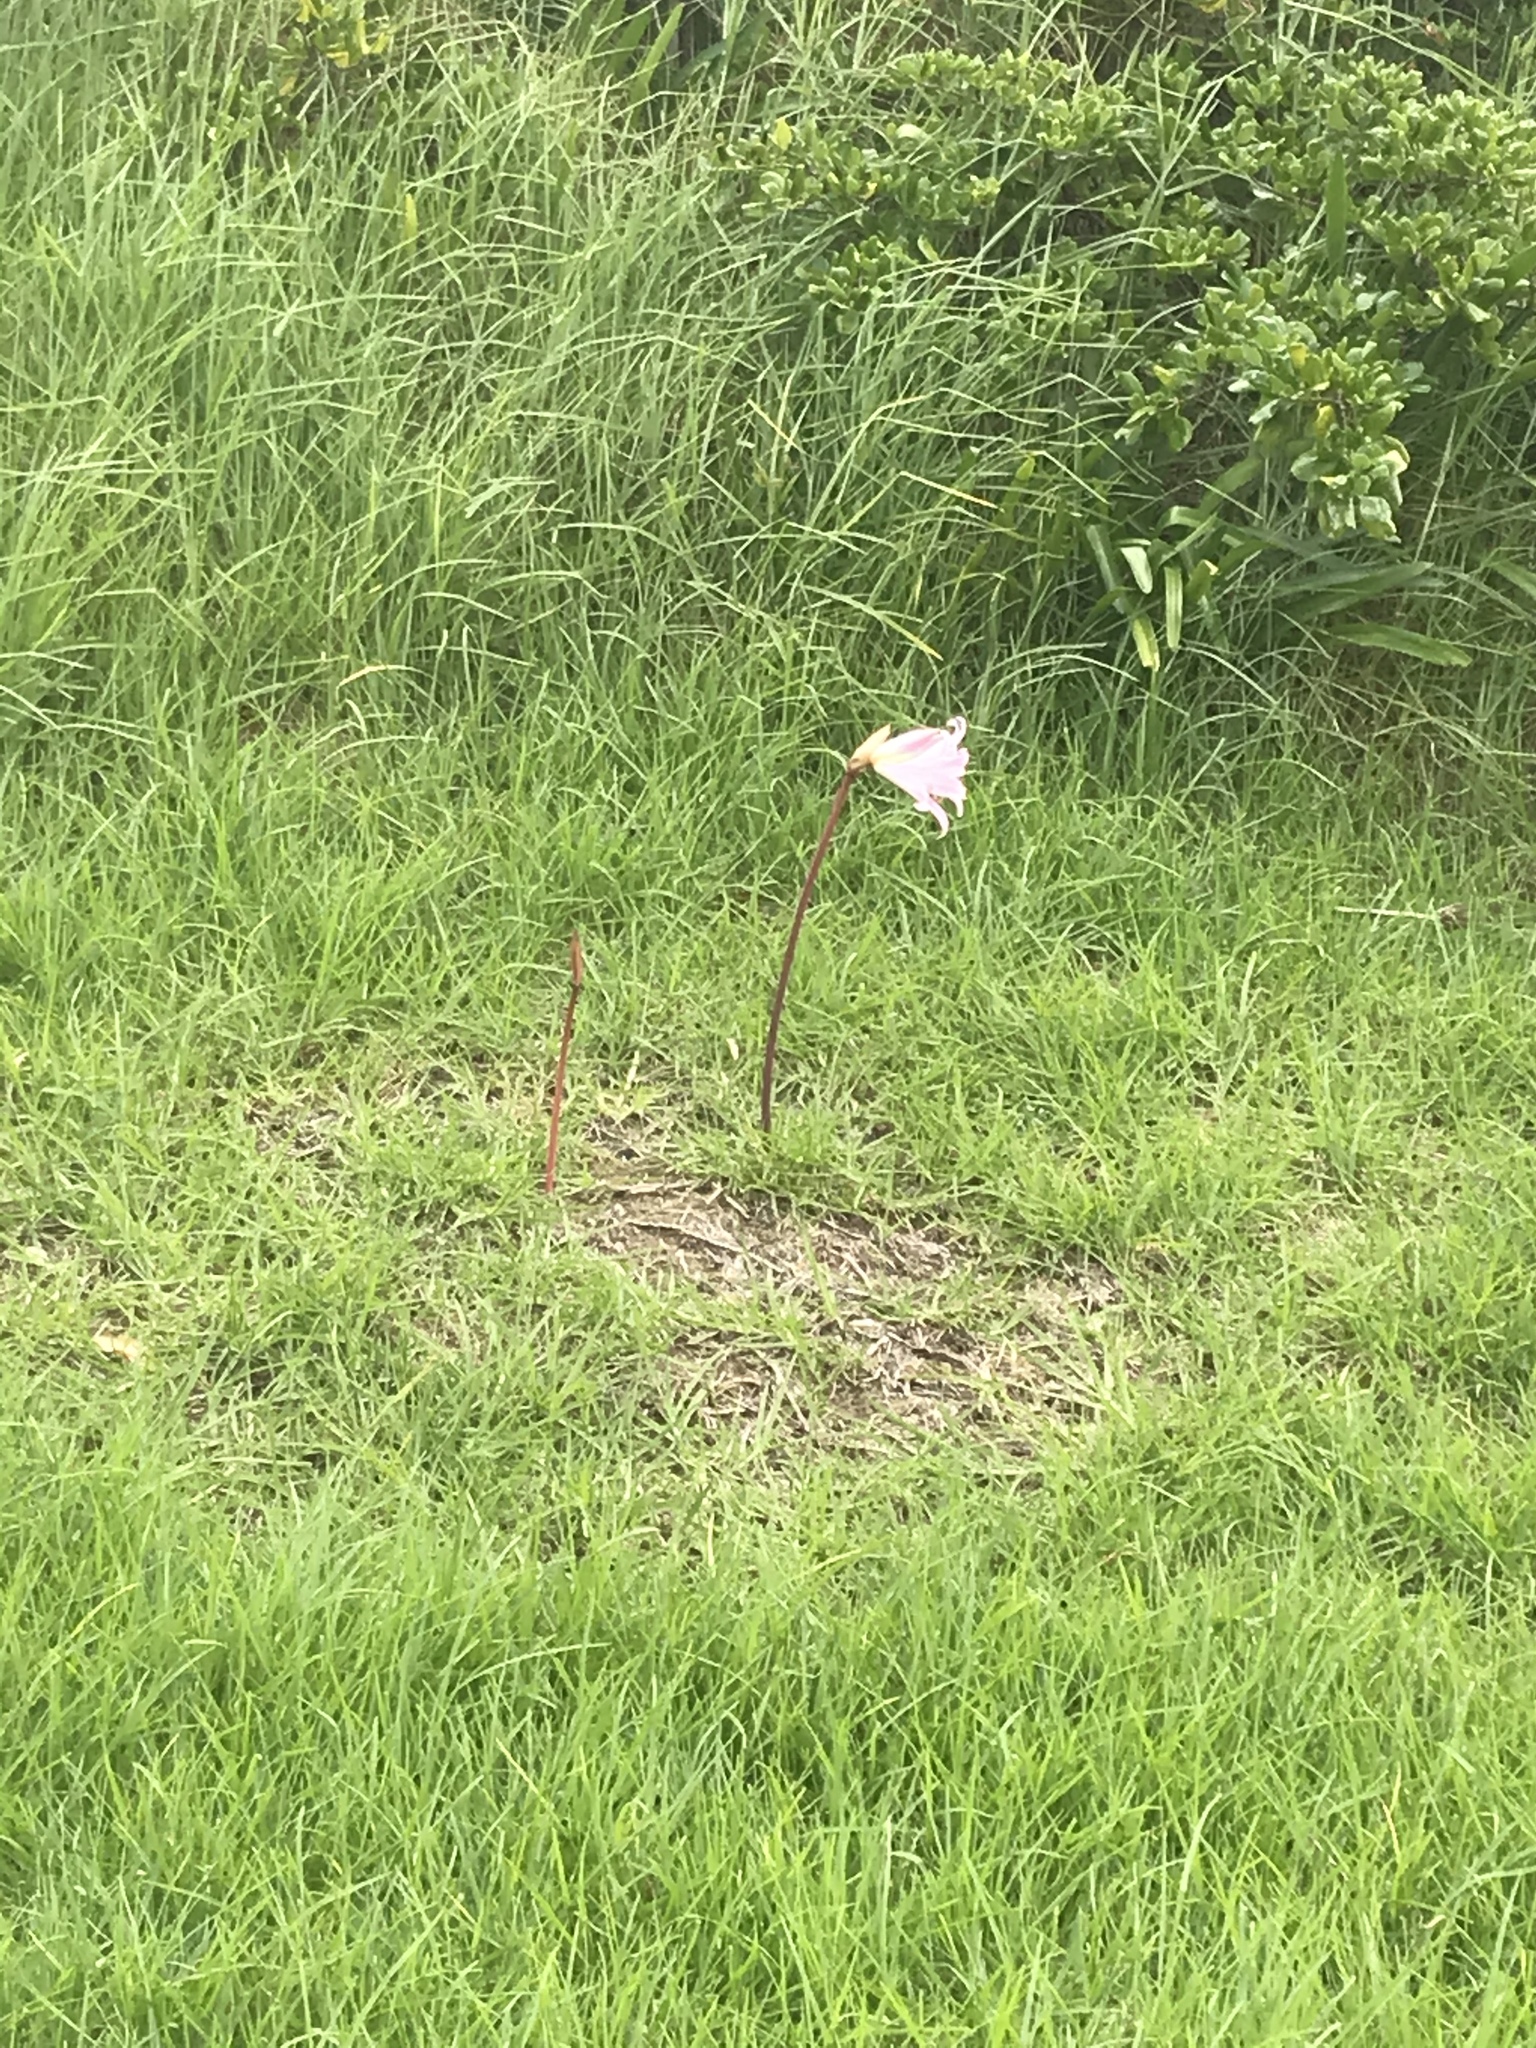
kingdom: Plantae
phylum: Tracheophyta
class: Liliopsida
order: Asparagales
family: Amaryllidaceae
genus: Amaryllis
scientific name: Amaryllis belladonna
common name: Jersey lily
